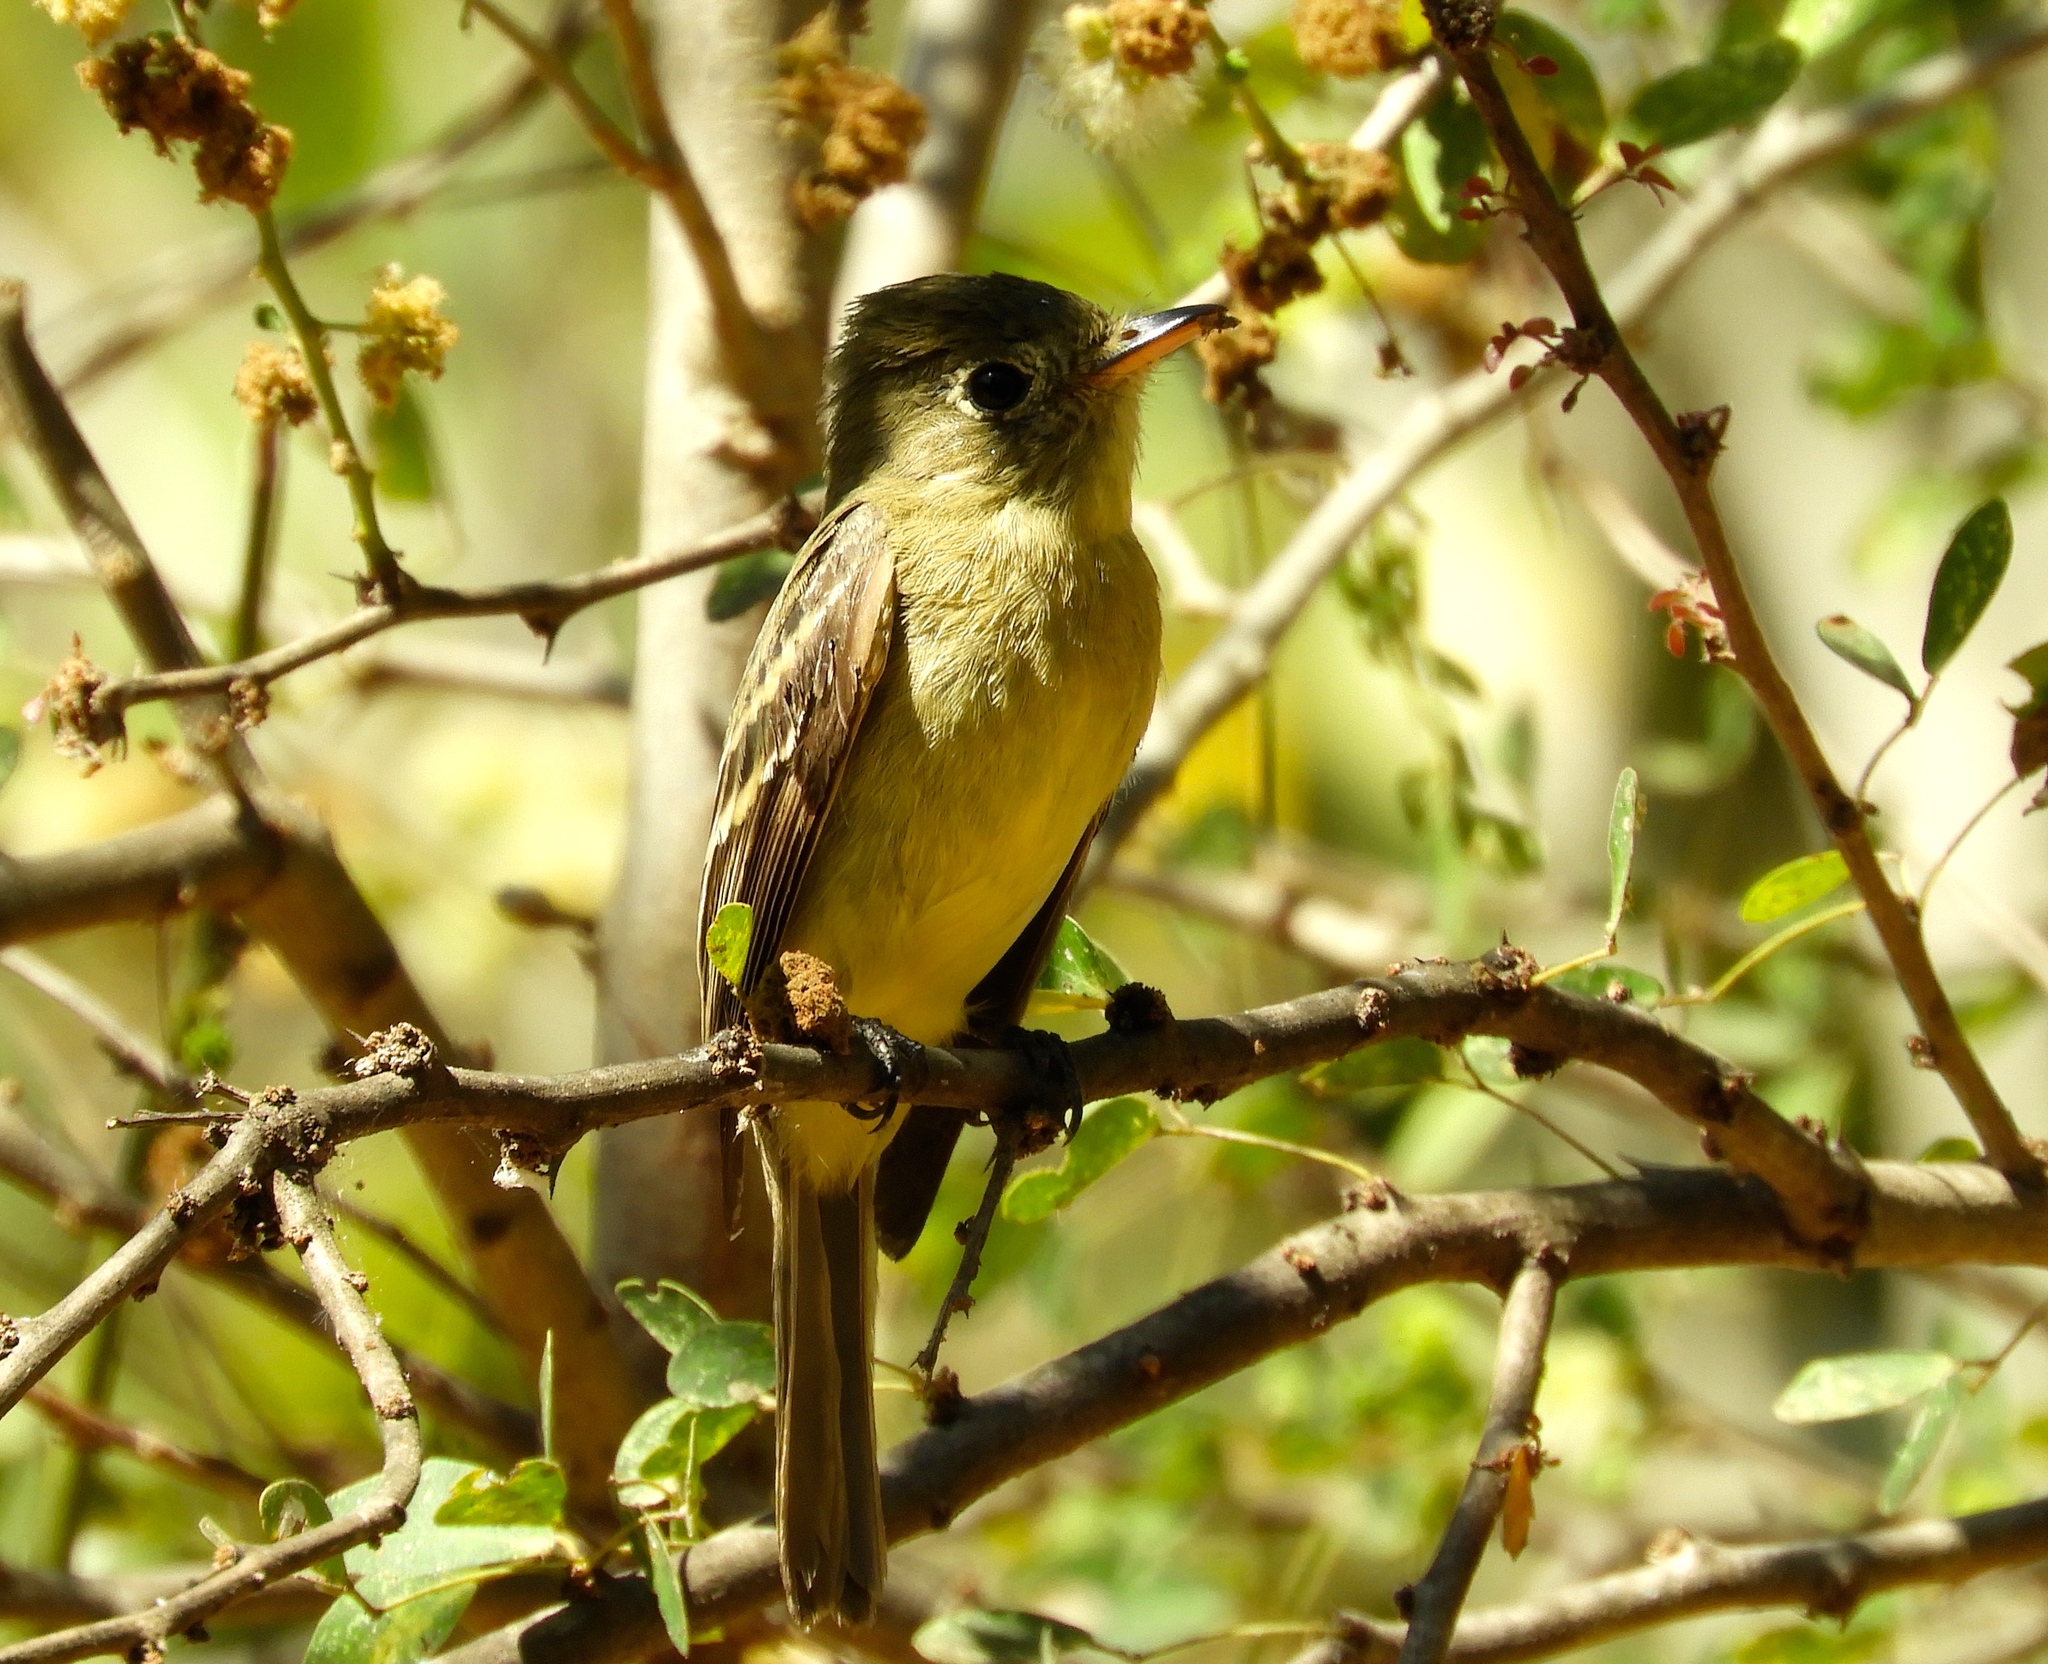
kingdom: Animalia
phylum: Chordata
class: Aves
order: Passeriformes
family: Tyrannidae
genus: Empidonax
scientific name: Empidonax
